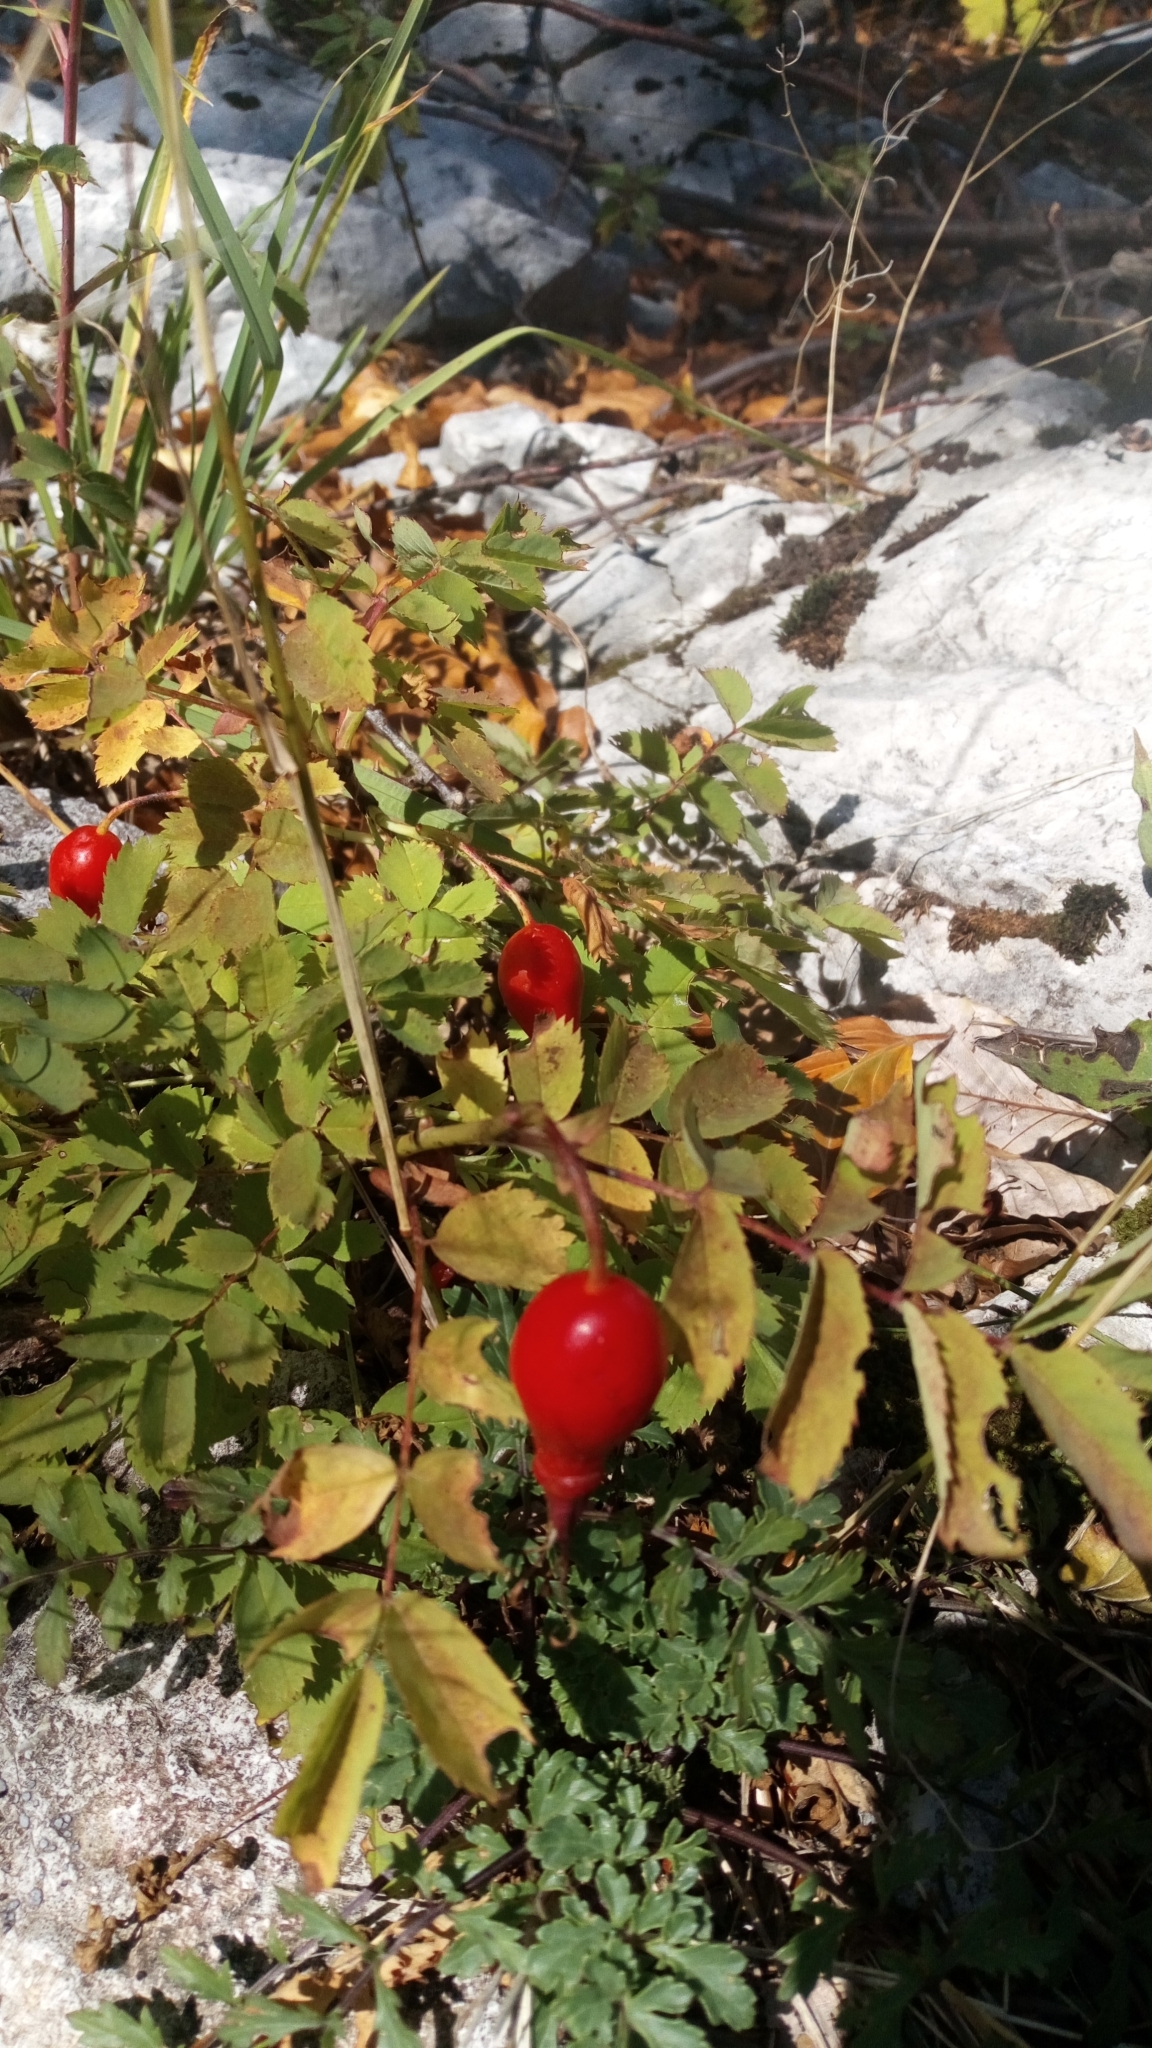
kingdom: Plantae
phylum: Tracheophyta
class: Magnoliopsida
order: Rosales
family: Rosaceae
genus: Rosa
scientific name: Rosa pendulina
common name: Alpine rose
